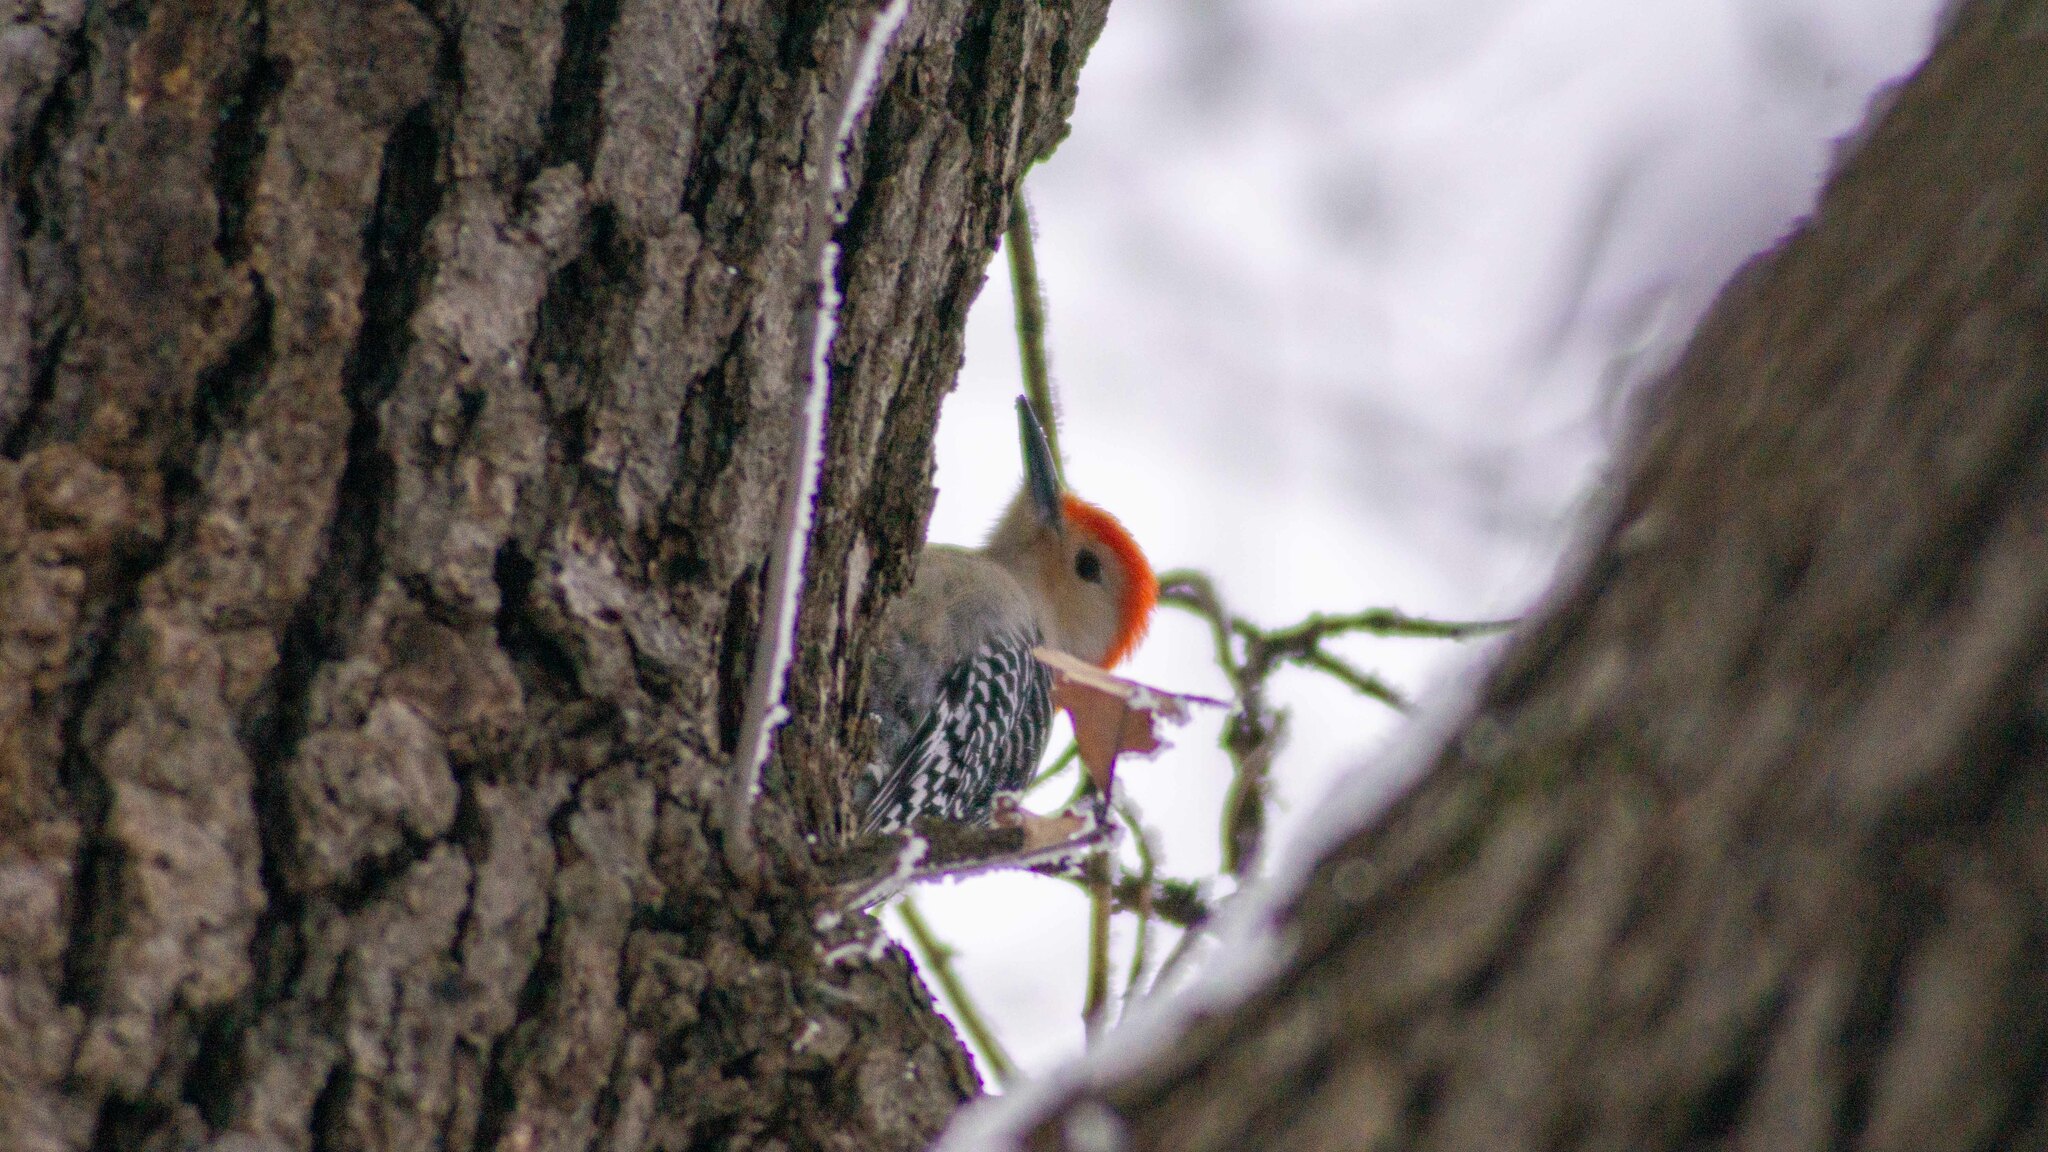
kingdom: Animalia
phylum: Chordata
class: Aves
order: Piciformes
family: Picidae
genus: Melanerpes
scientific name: Melanerpes carolinus
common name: Red-bellied woodpecker
